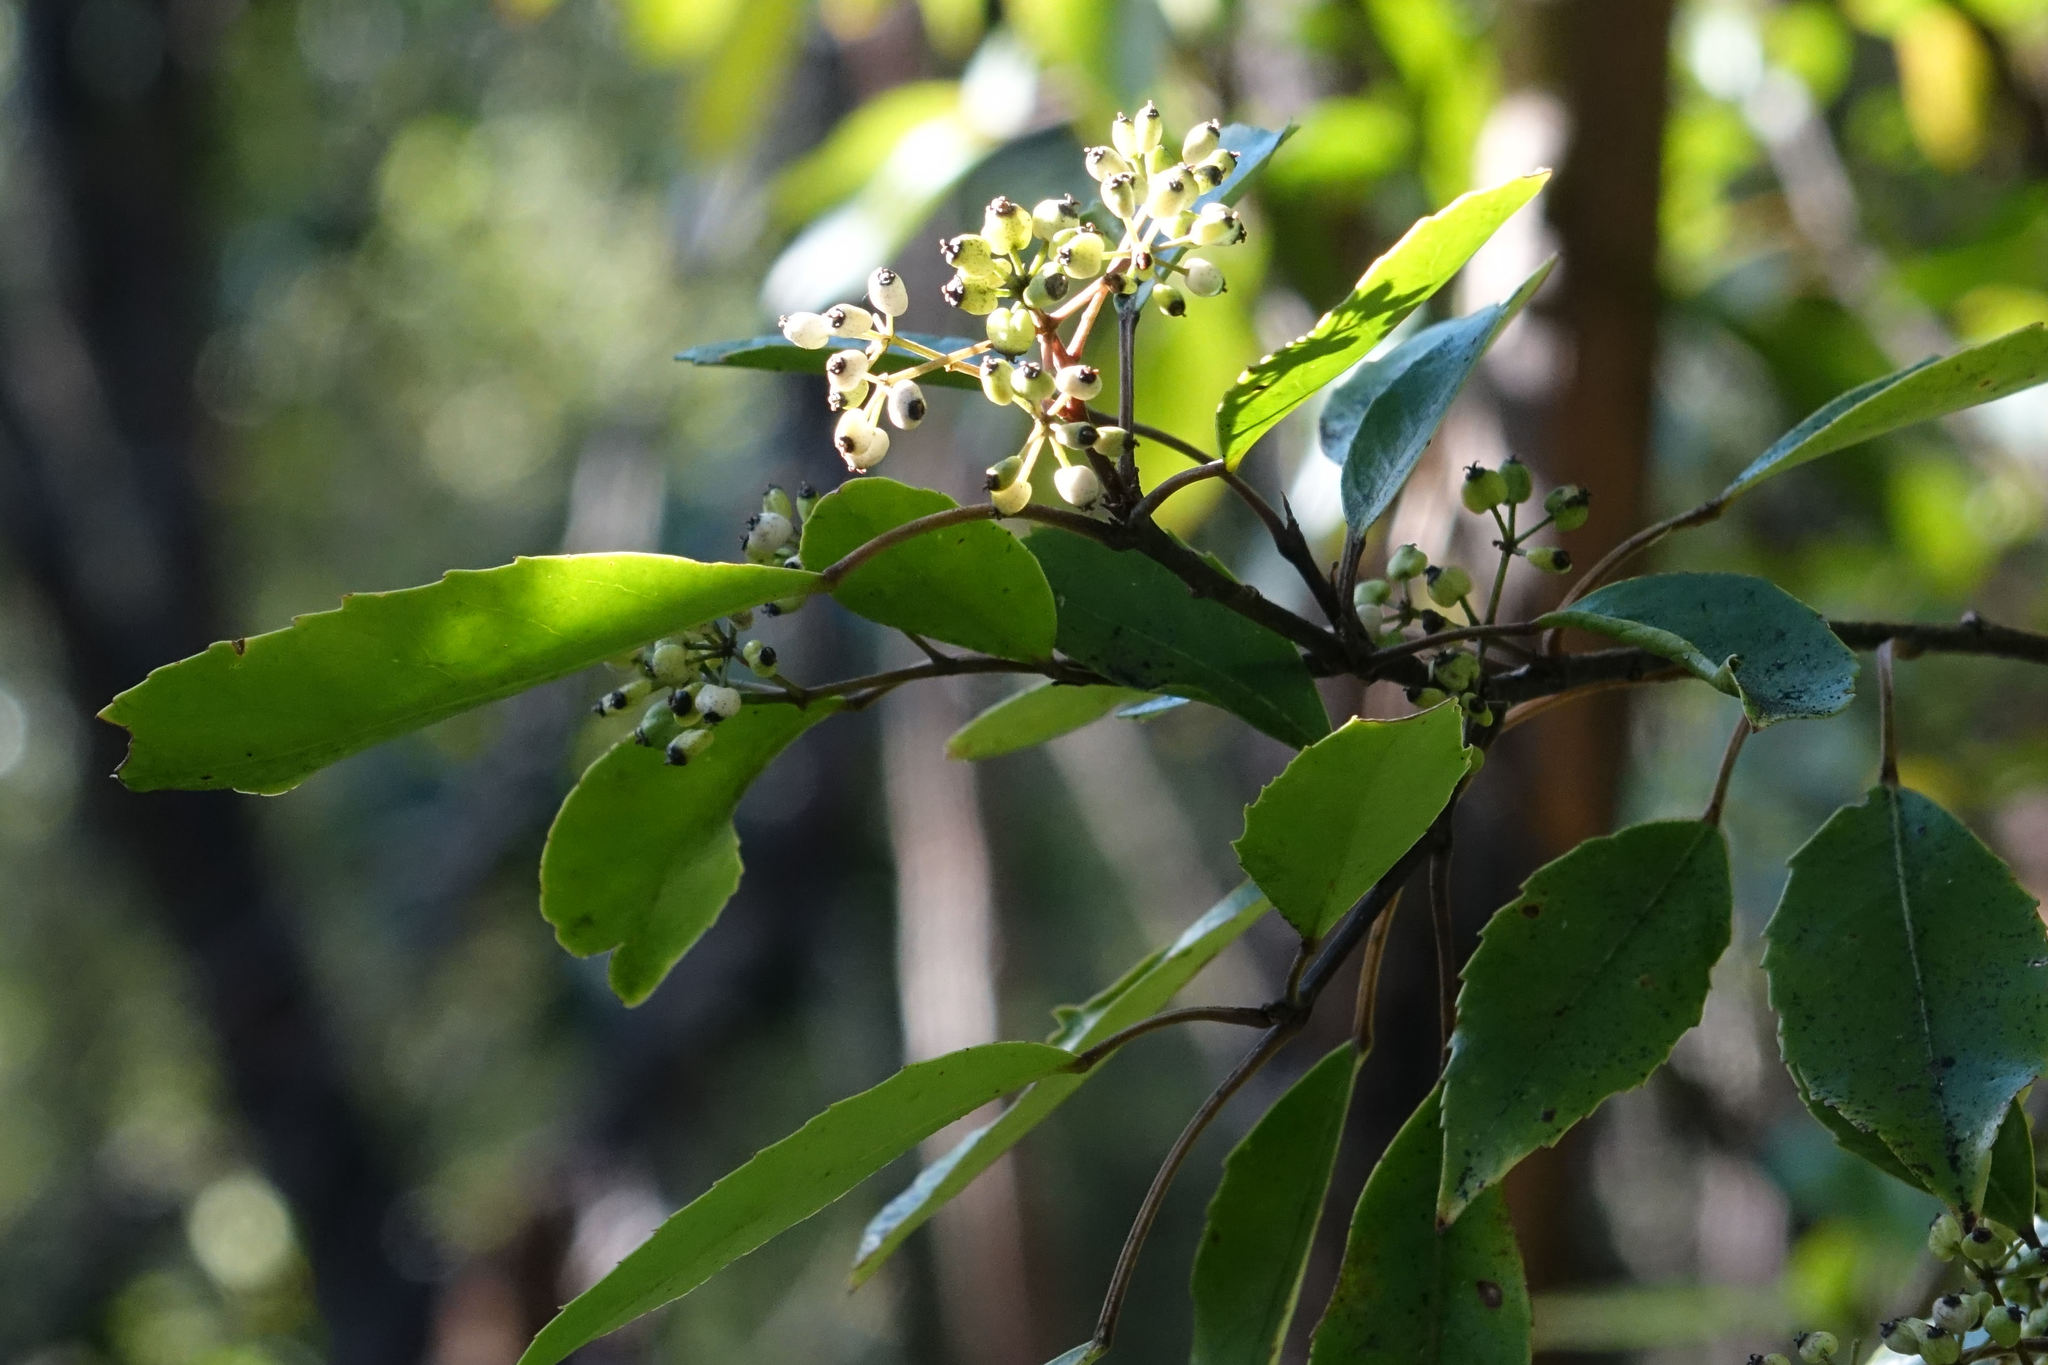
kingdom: Plantae
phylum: Tracheophyta
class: Magnoliopsida
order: Apiales
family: Araliaceae
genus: Raukaua
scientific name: Raukaua simplex
